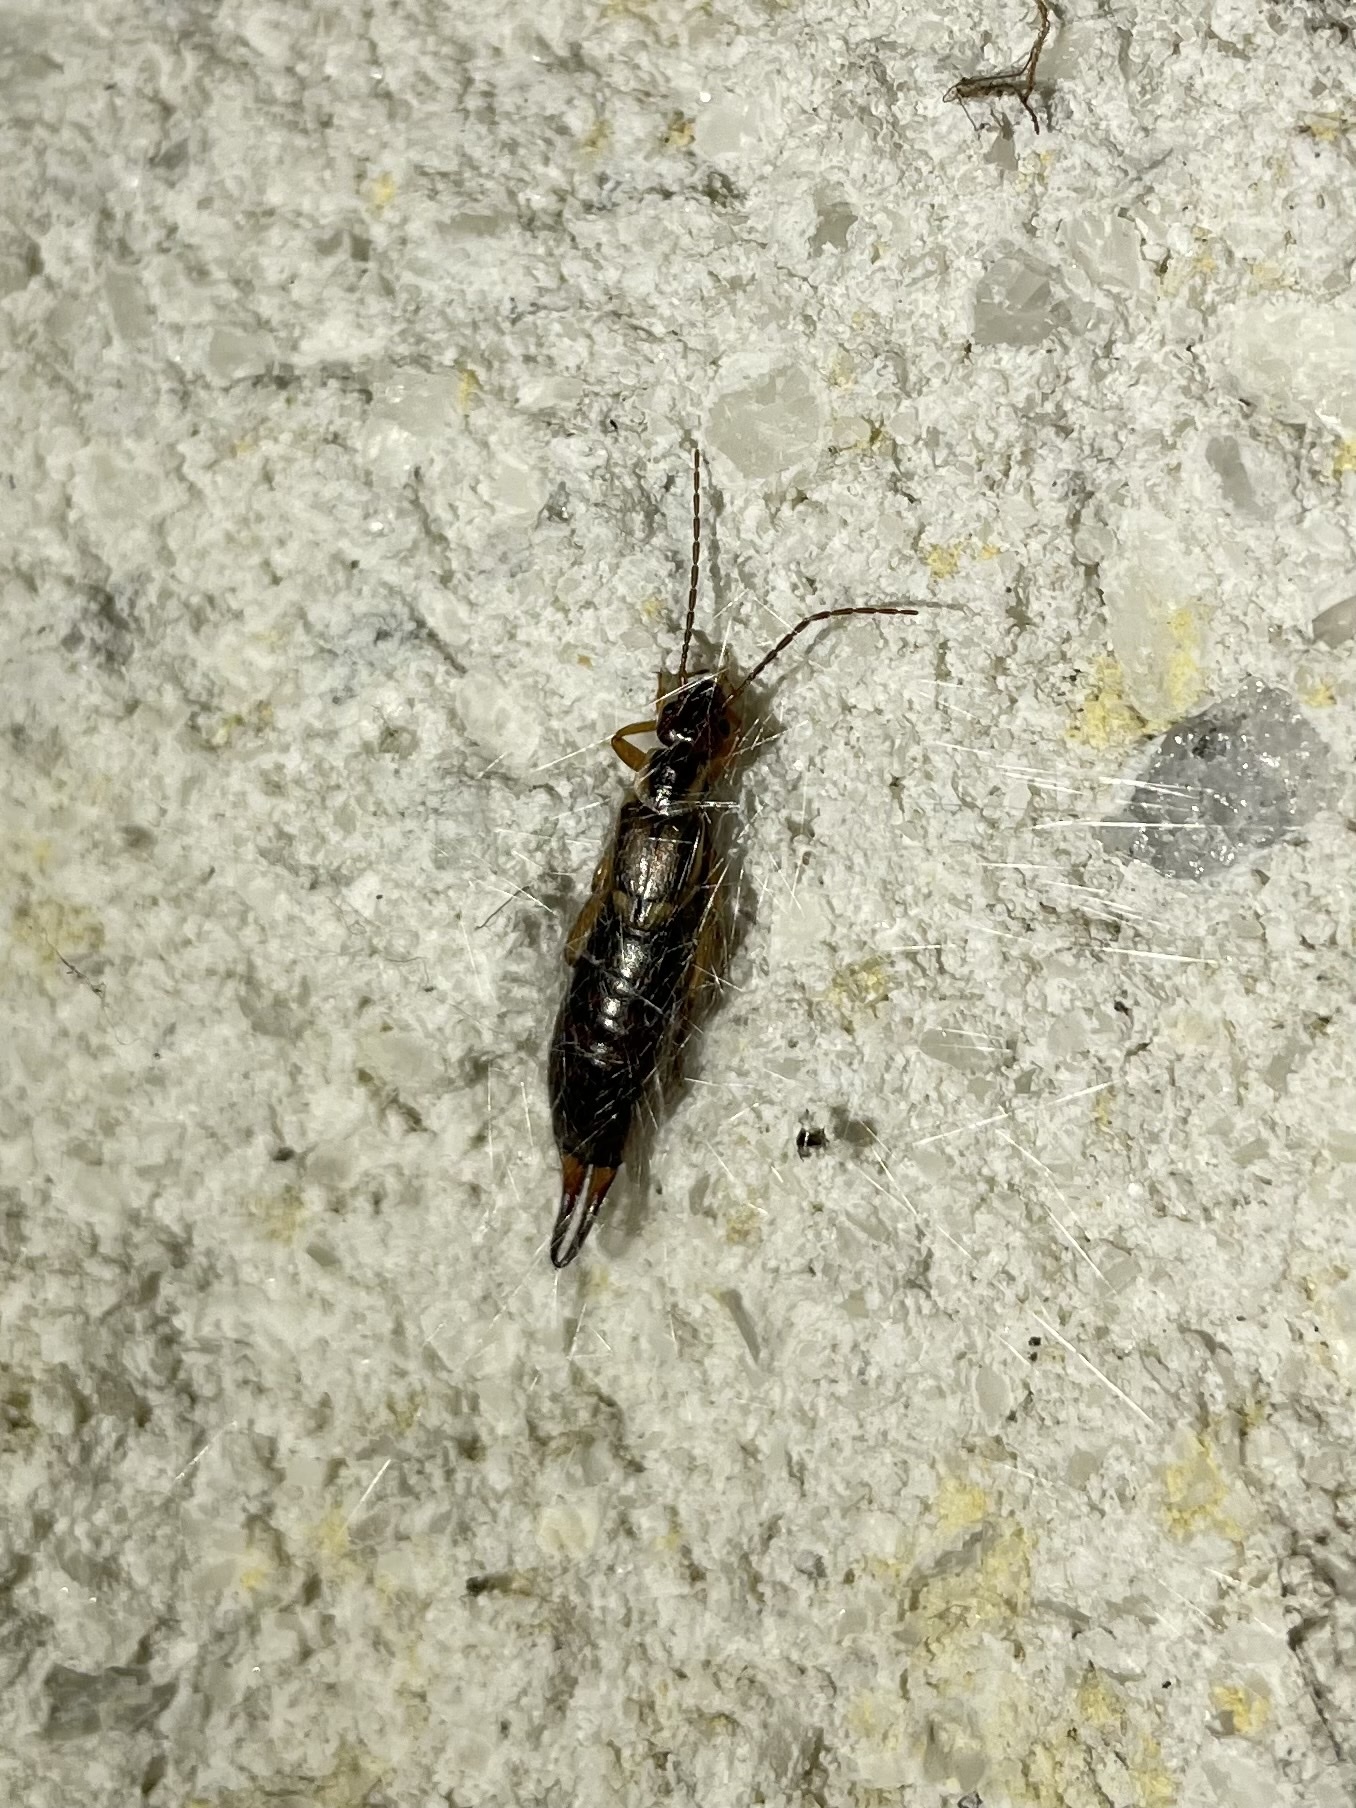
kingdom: Animalia
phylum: Arthropoda
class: Insecta
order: Dermaptera
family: Forficulidae
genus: Forficula
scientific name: Forficula
